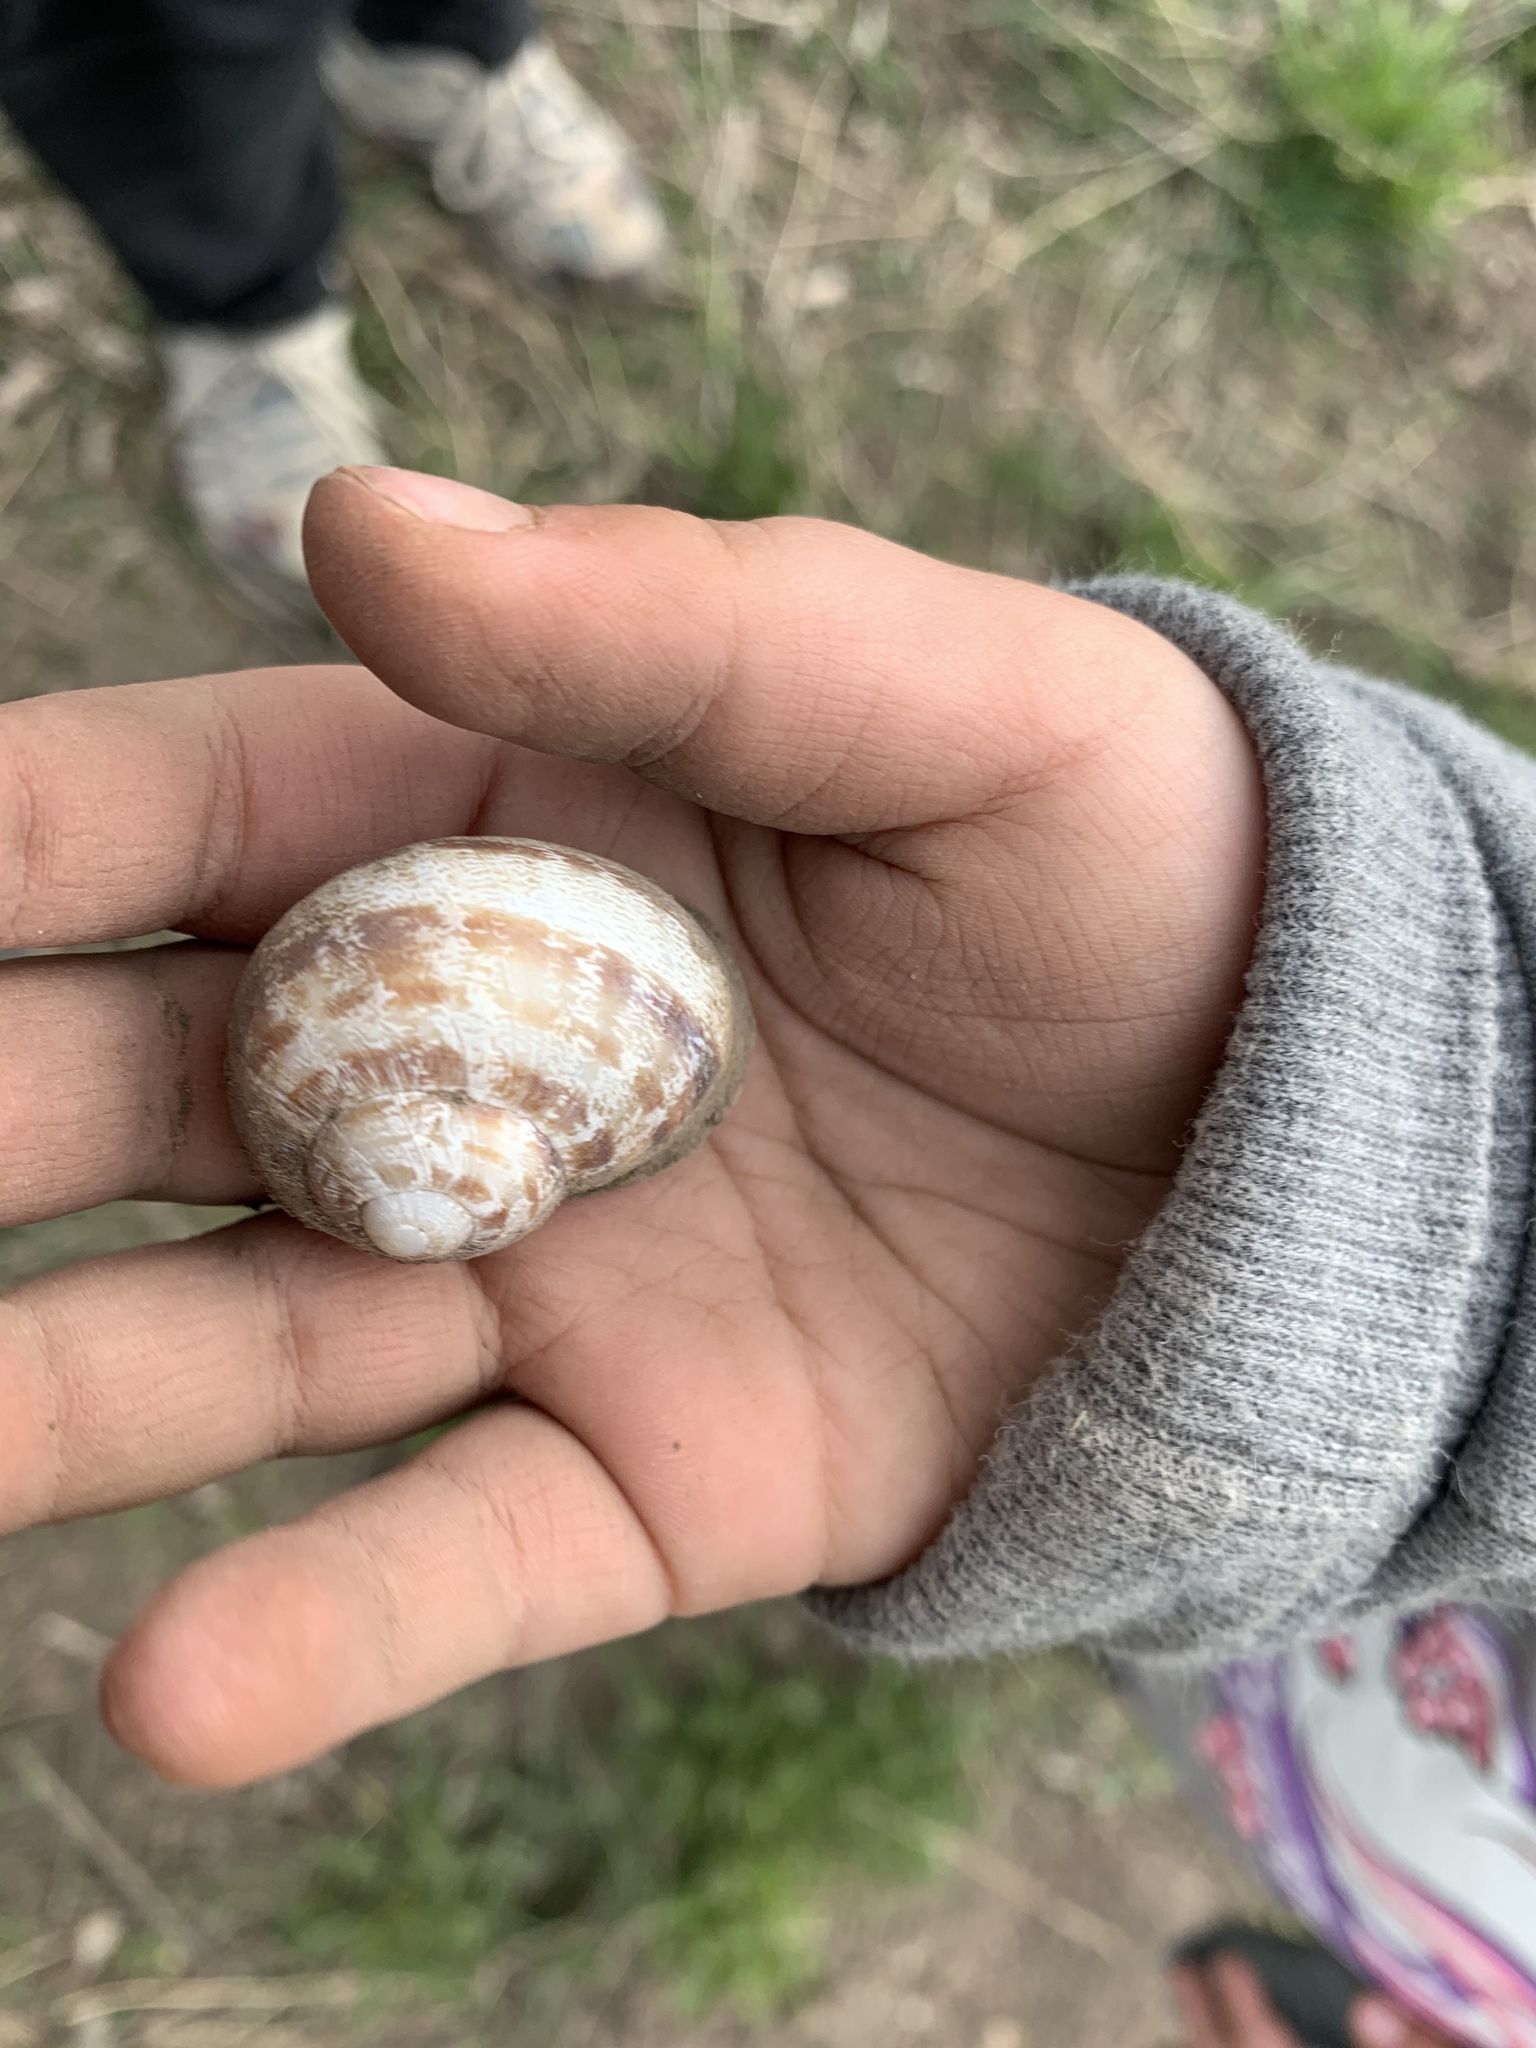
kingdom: Animalia
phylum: Mollusca
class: Gastropoda
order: Stylommatophora
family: Helicidae
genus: Cornu
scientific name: Cornu aspersum
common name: Brown garden snail
